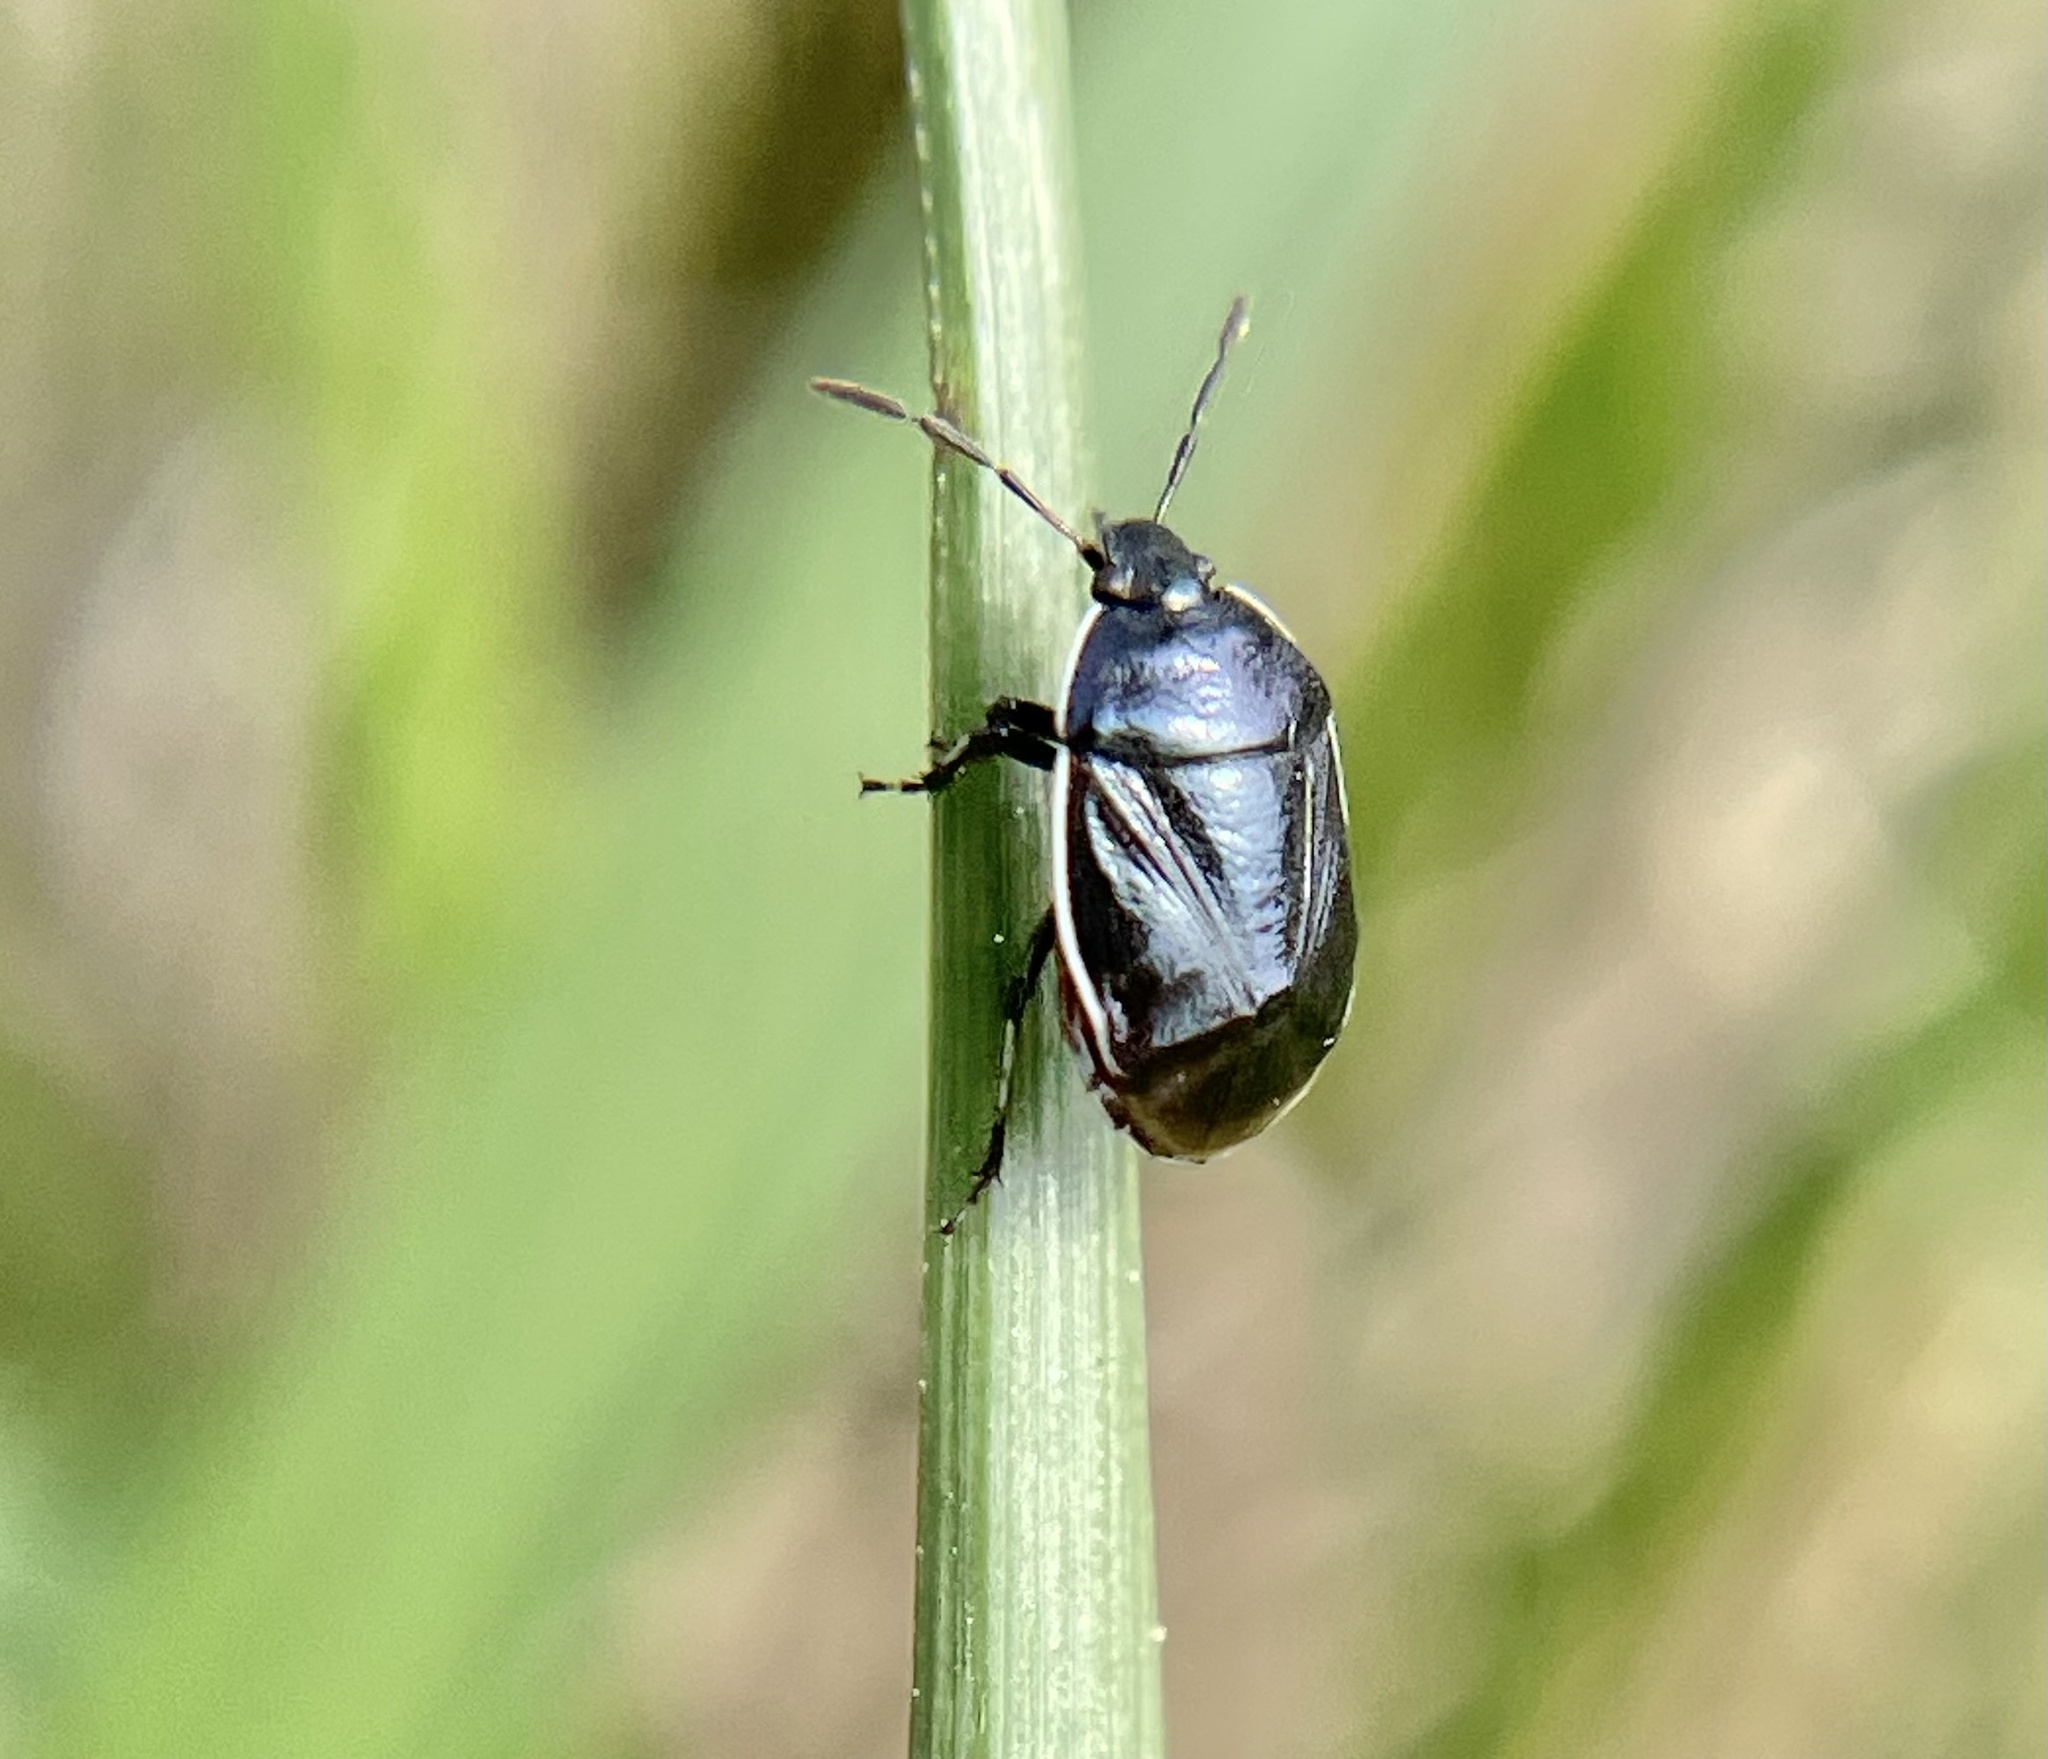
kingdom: Animalia
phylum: Arthropoda
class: Insecta
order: Hemiptera
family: Cydnidae
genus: Sehirus
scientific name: Sehirus cinctus
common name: White-margined burrower bug
